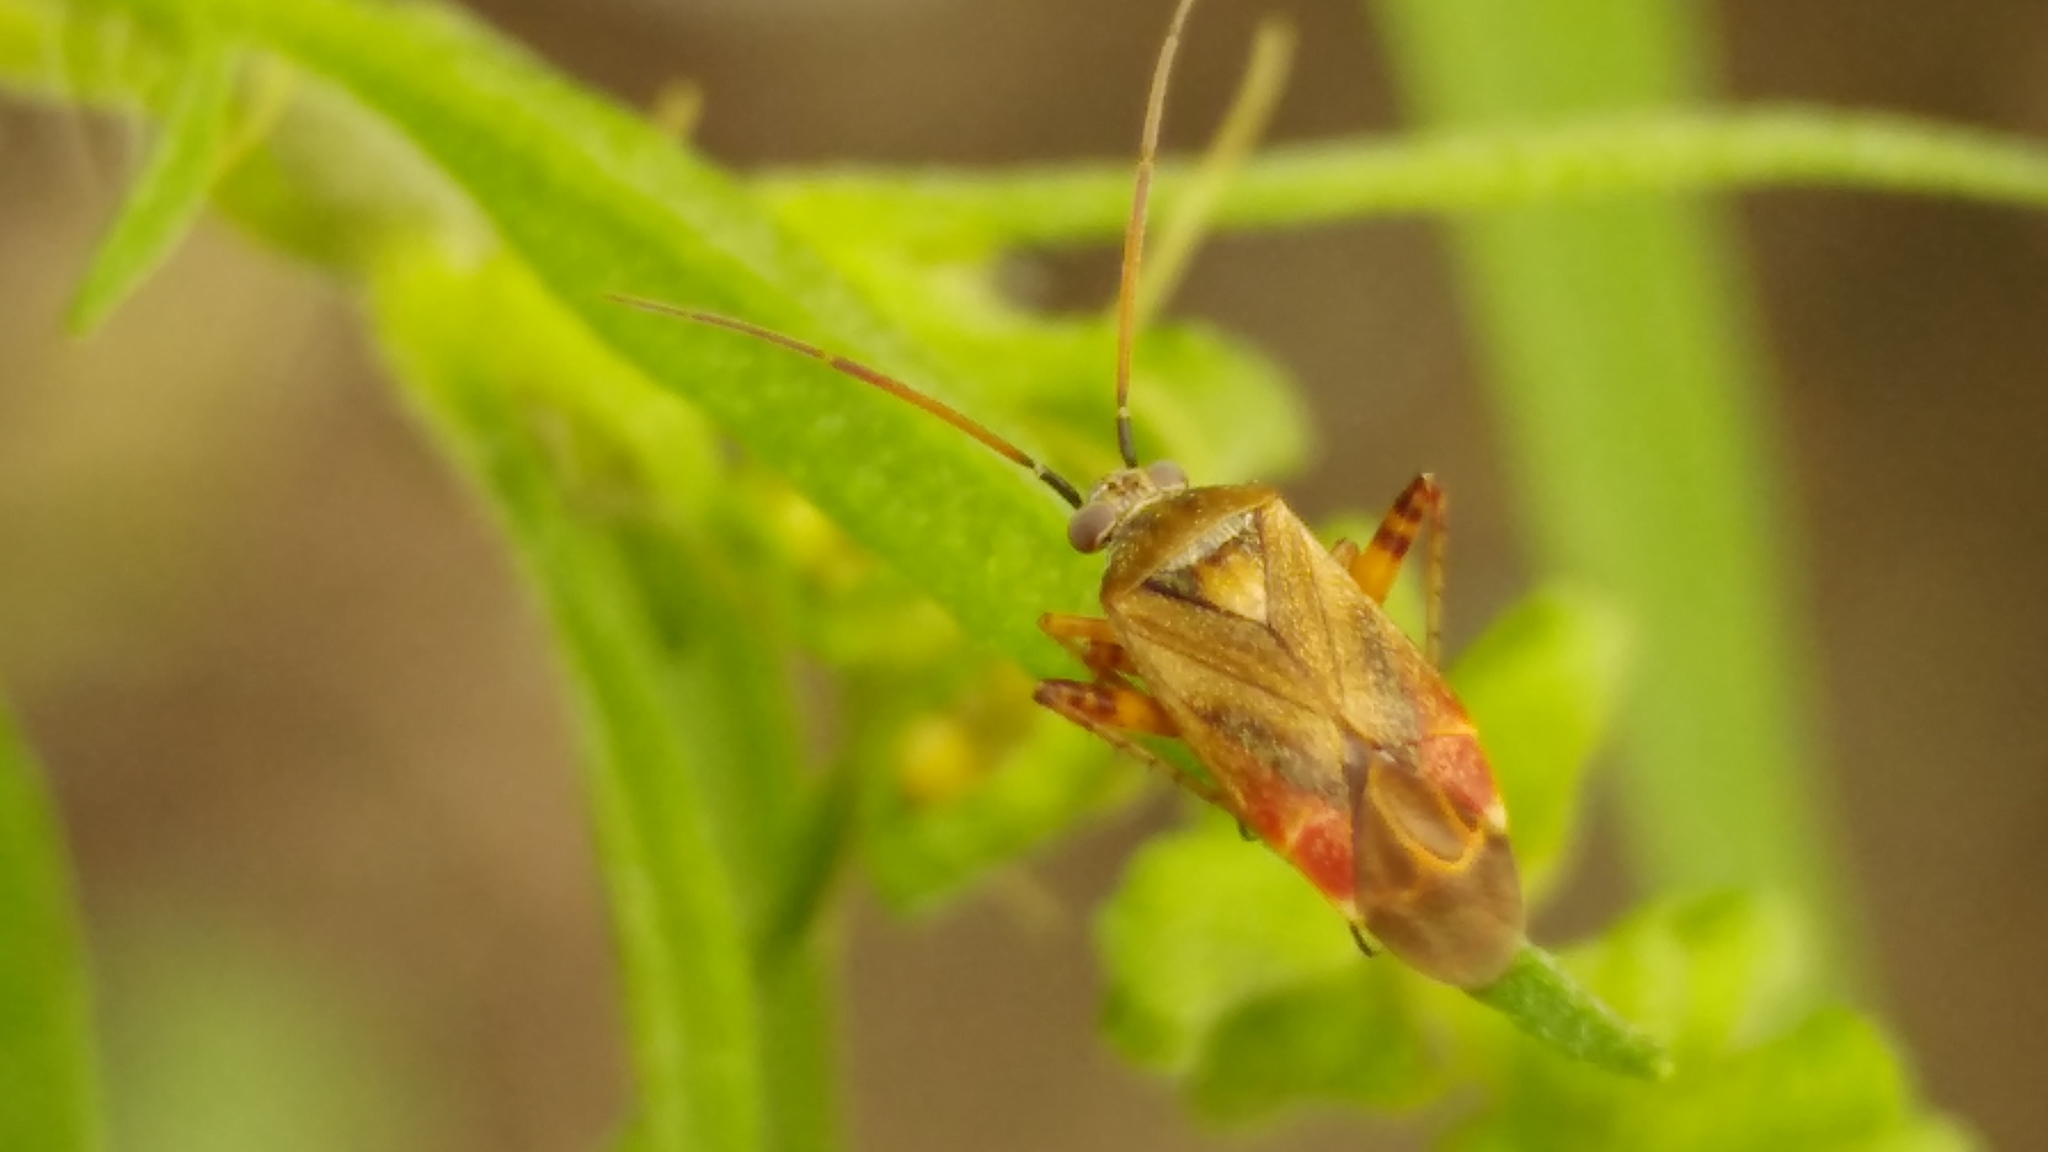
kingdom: Animalia
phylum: Arthropoda
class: Insecta
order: Hemiptera
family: Miridae
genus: Polymerus
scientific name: Polymerus basalis
